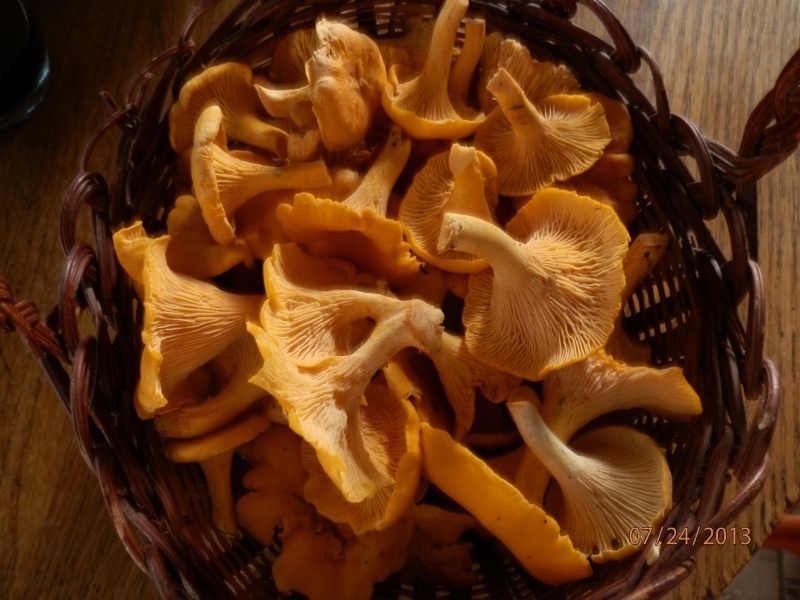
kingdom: Fungi
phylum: Basidiomycota
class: Agaricomycetes
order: Cantharellales
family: Hydnaceae
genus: Cantharellus
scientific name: Cantharellus enelensis
